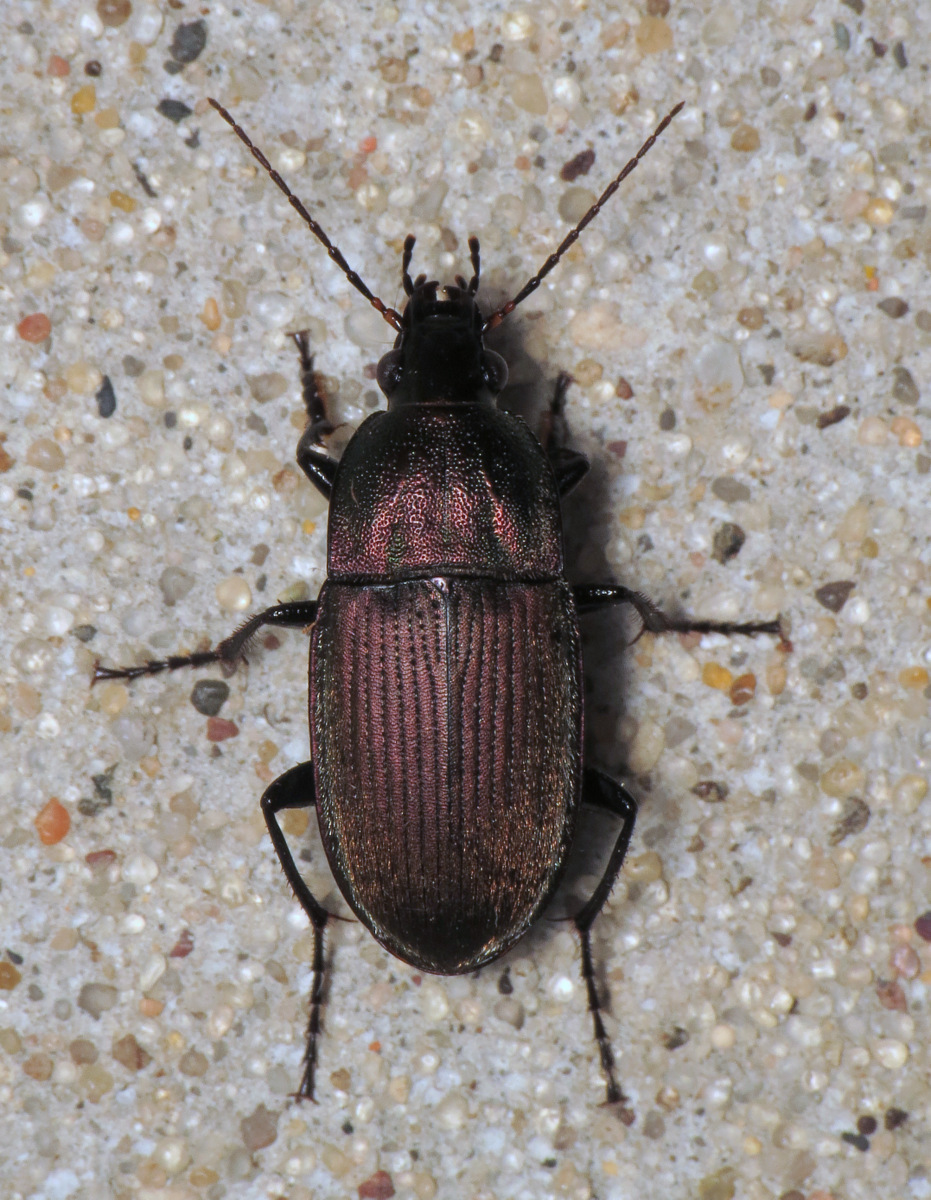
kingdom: Animalia
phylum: Arthropoda
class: Insecta
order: Coleoptera
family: Carabidae
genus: Chlaenius
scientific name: Chlaenius tomentosus
